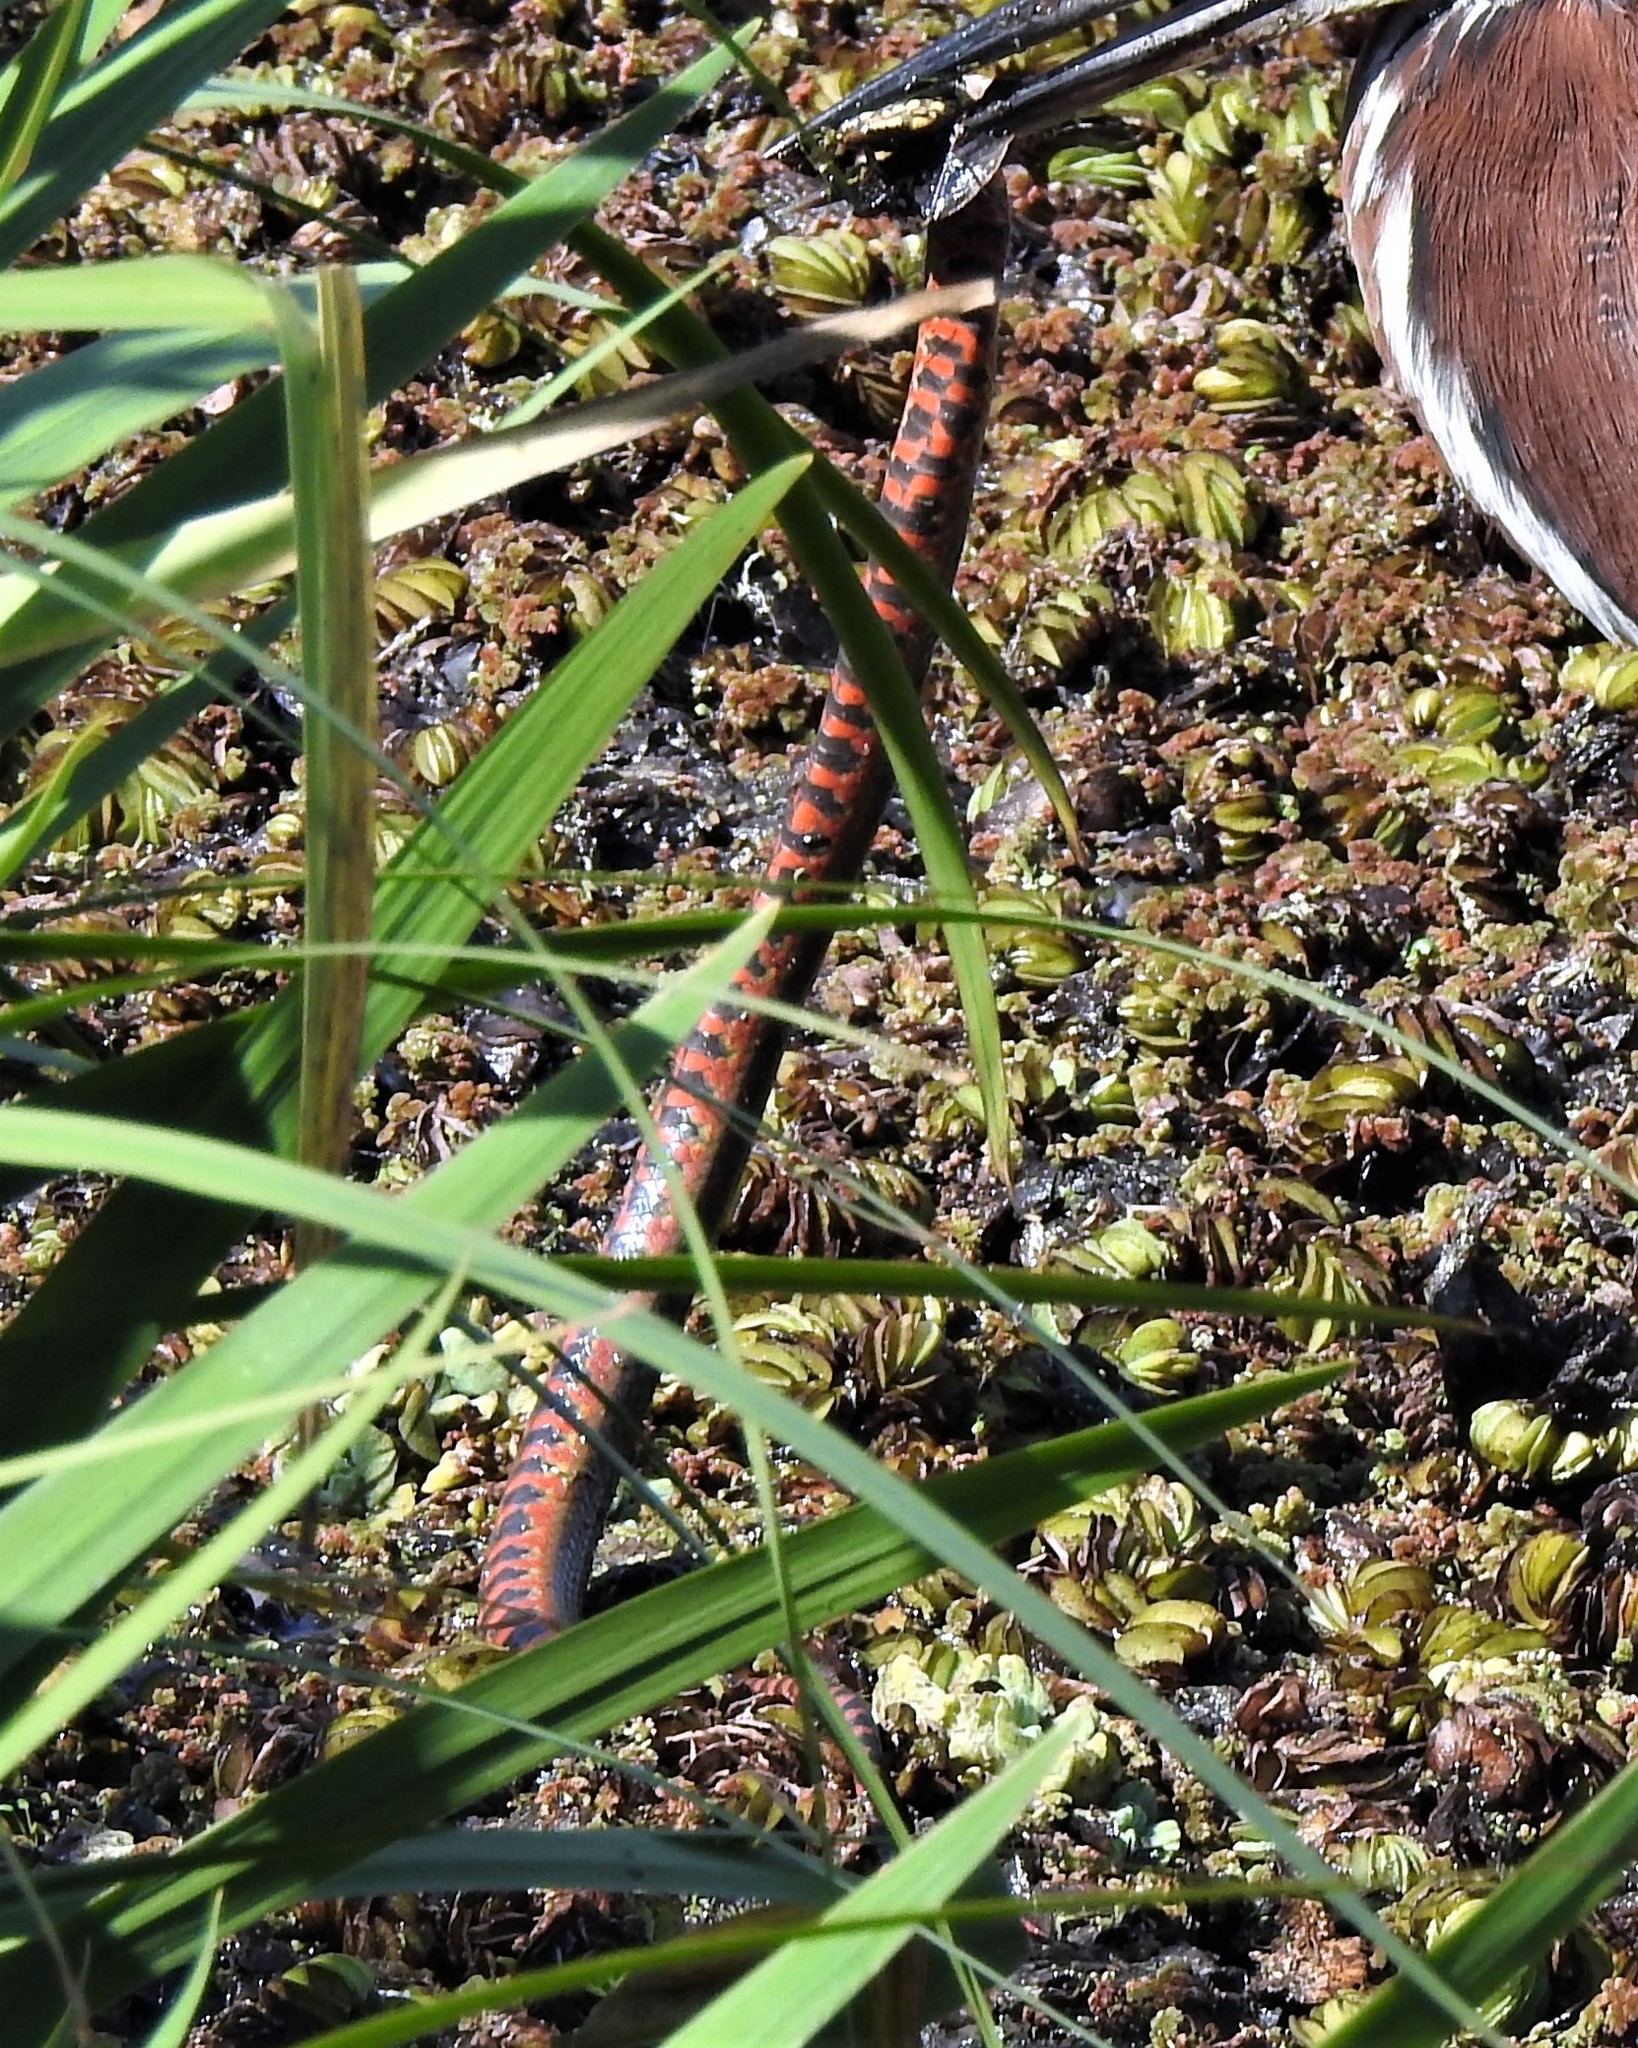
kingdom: Animalia
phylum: Chordata
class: Squamata
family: Colubridae
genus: Helicops
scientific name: Helicops leopardinus
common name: Leopard keelback
